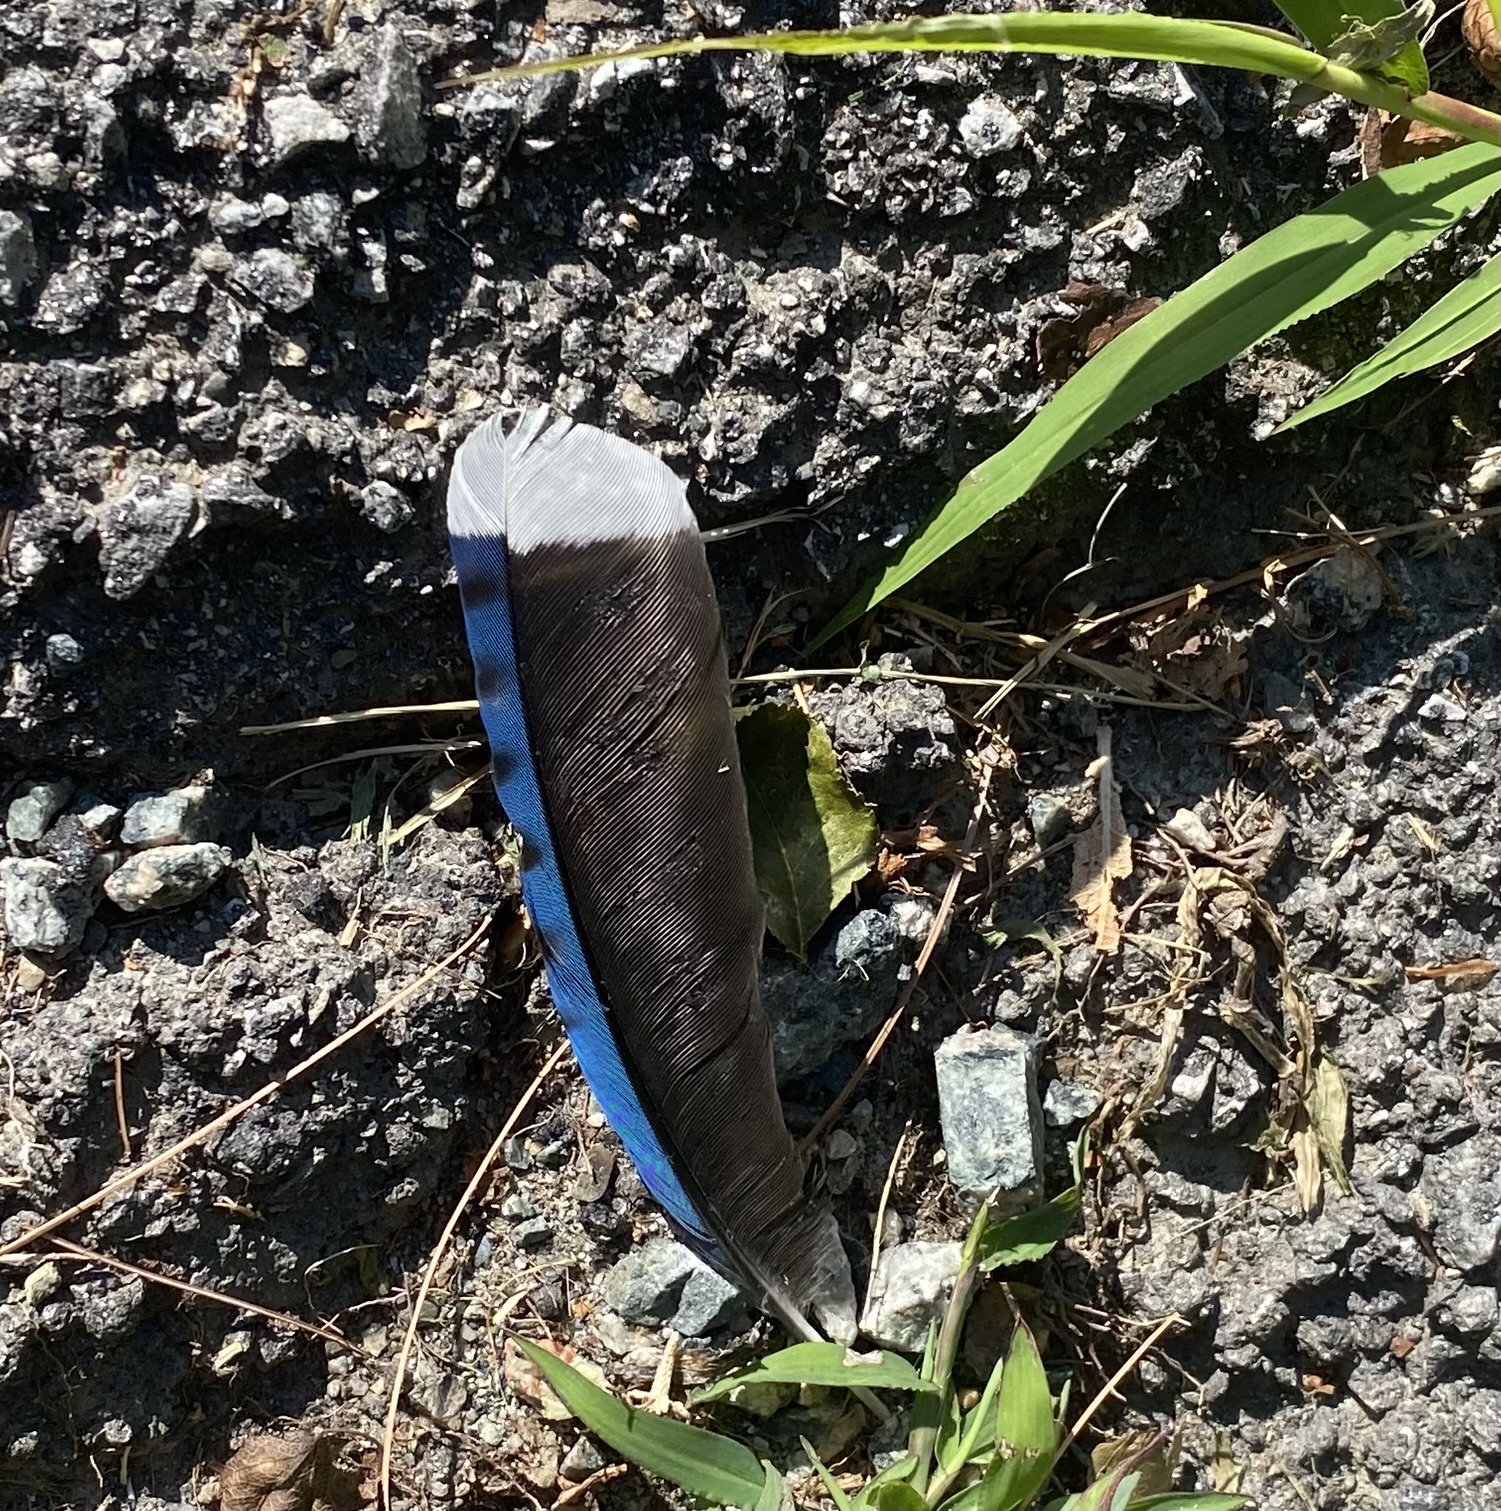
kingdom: Animalia
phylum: Chordata
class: Aves
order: Passeriformes
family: Corvidae
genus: Cyanocitta
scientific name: Cyanocitta cristata
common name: Blue jay
